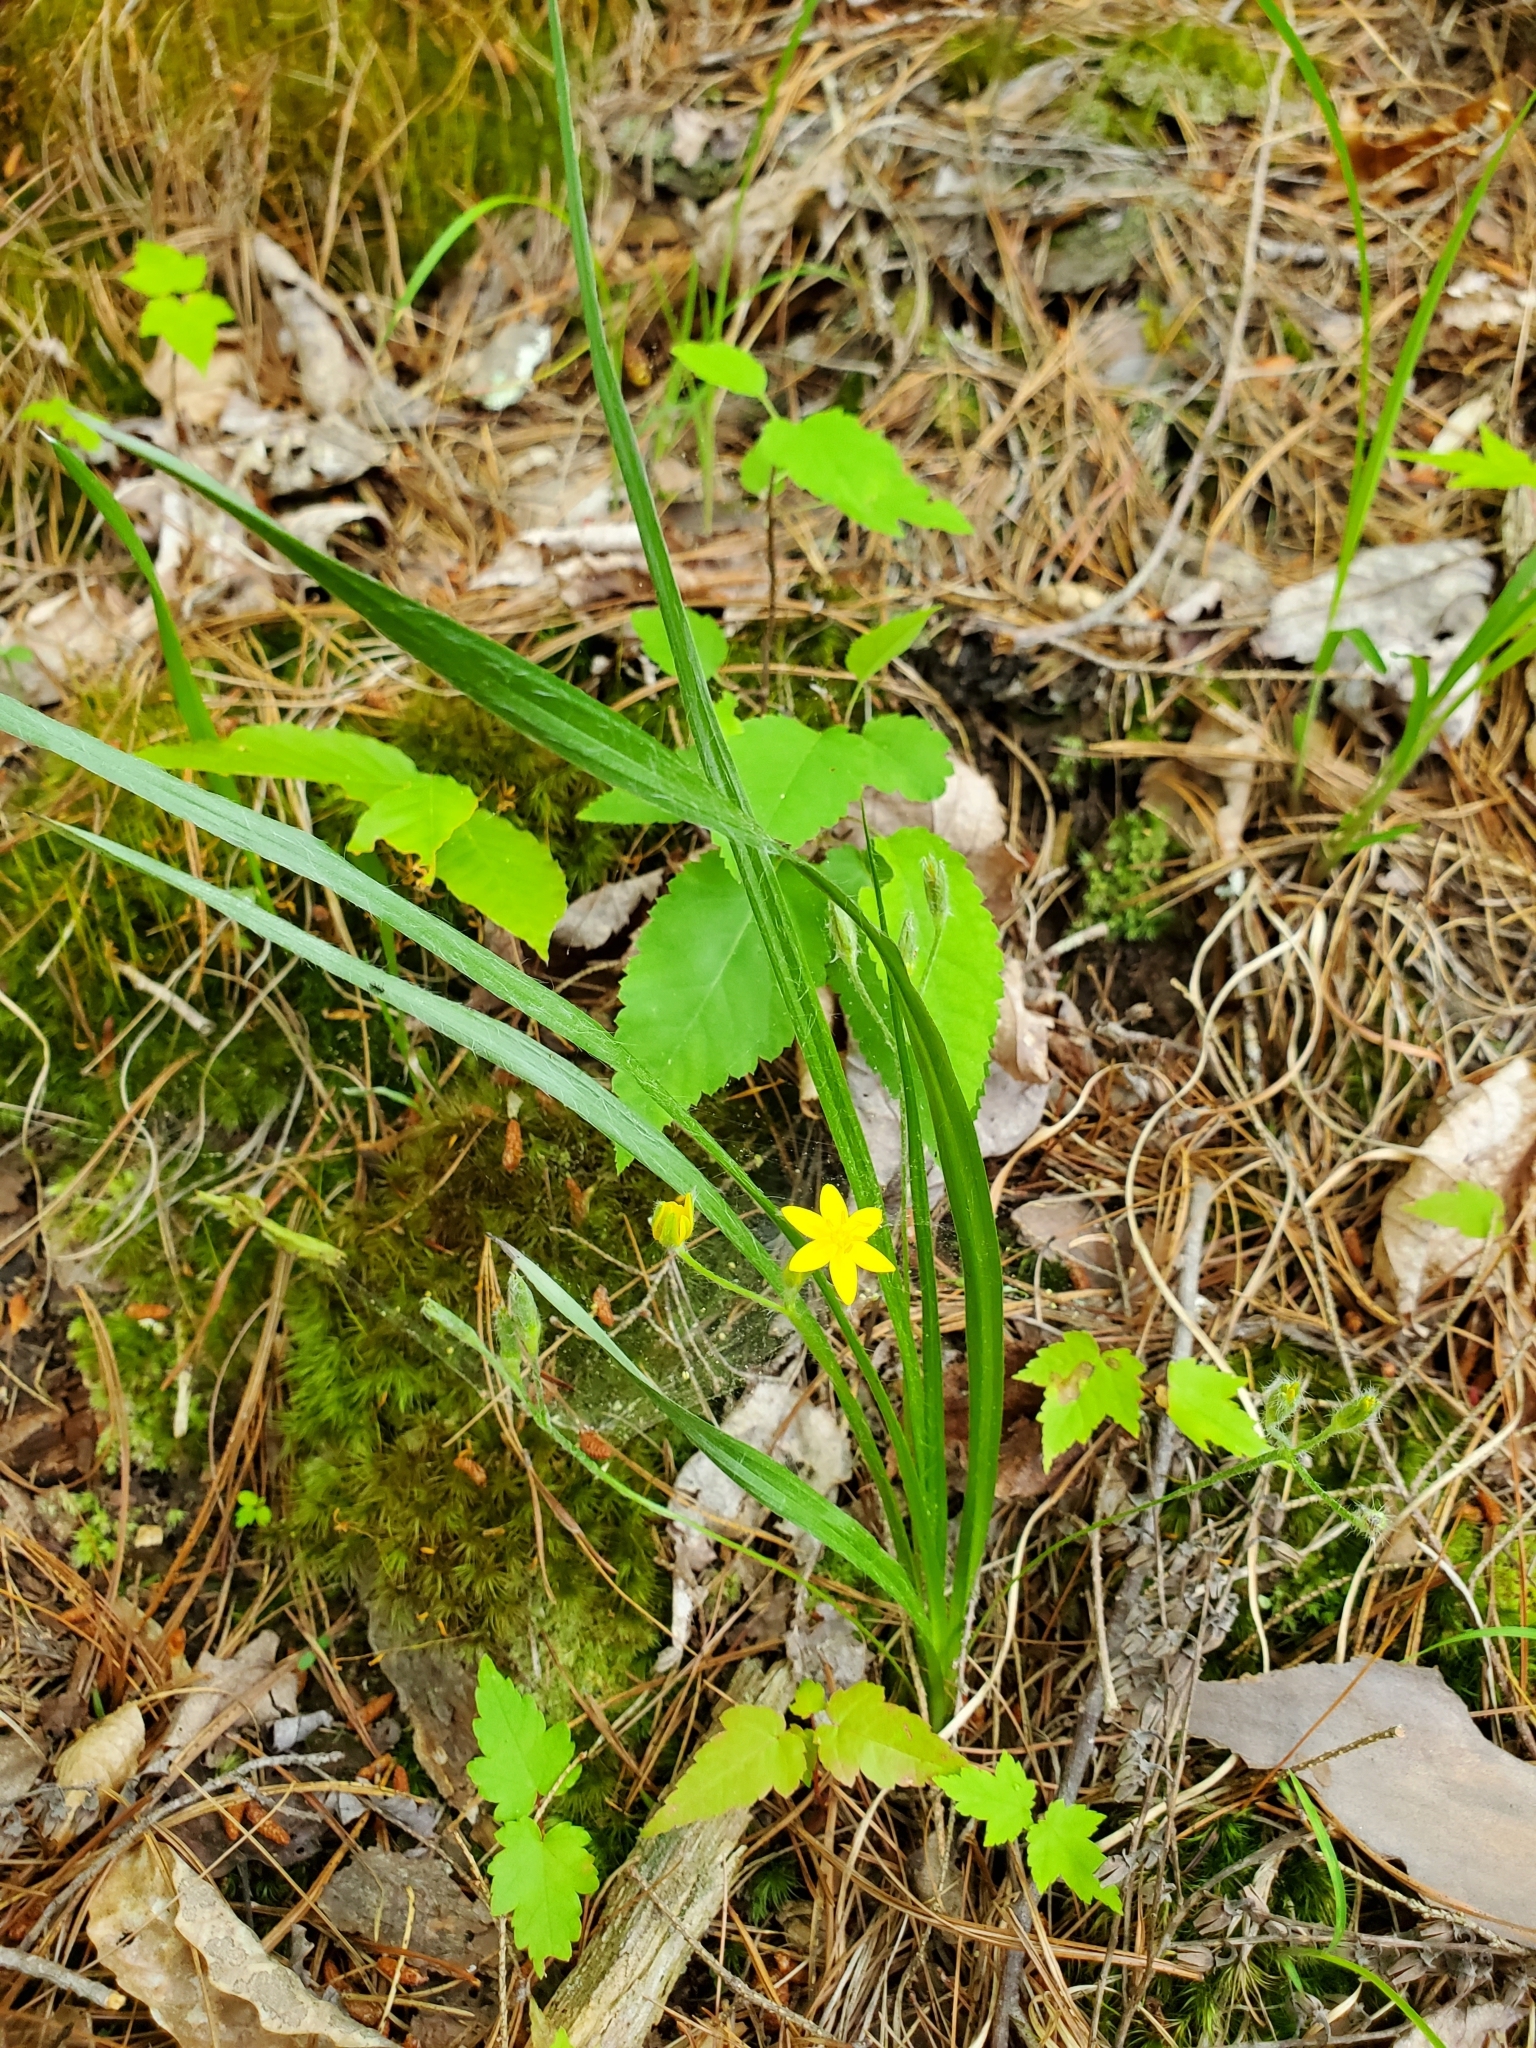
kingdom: Plantae
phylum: Tracheophyta
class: Liliopsida
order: Asparagales
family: Hypoxidaceae
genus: Hypoxis
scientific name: Hypoxis hirsuta
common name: Common goldstar
